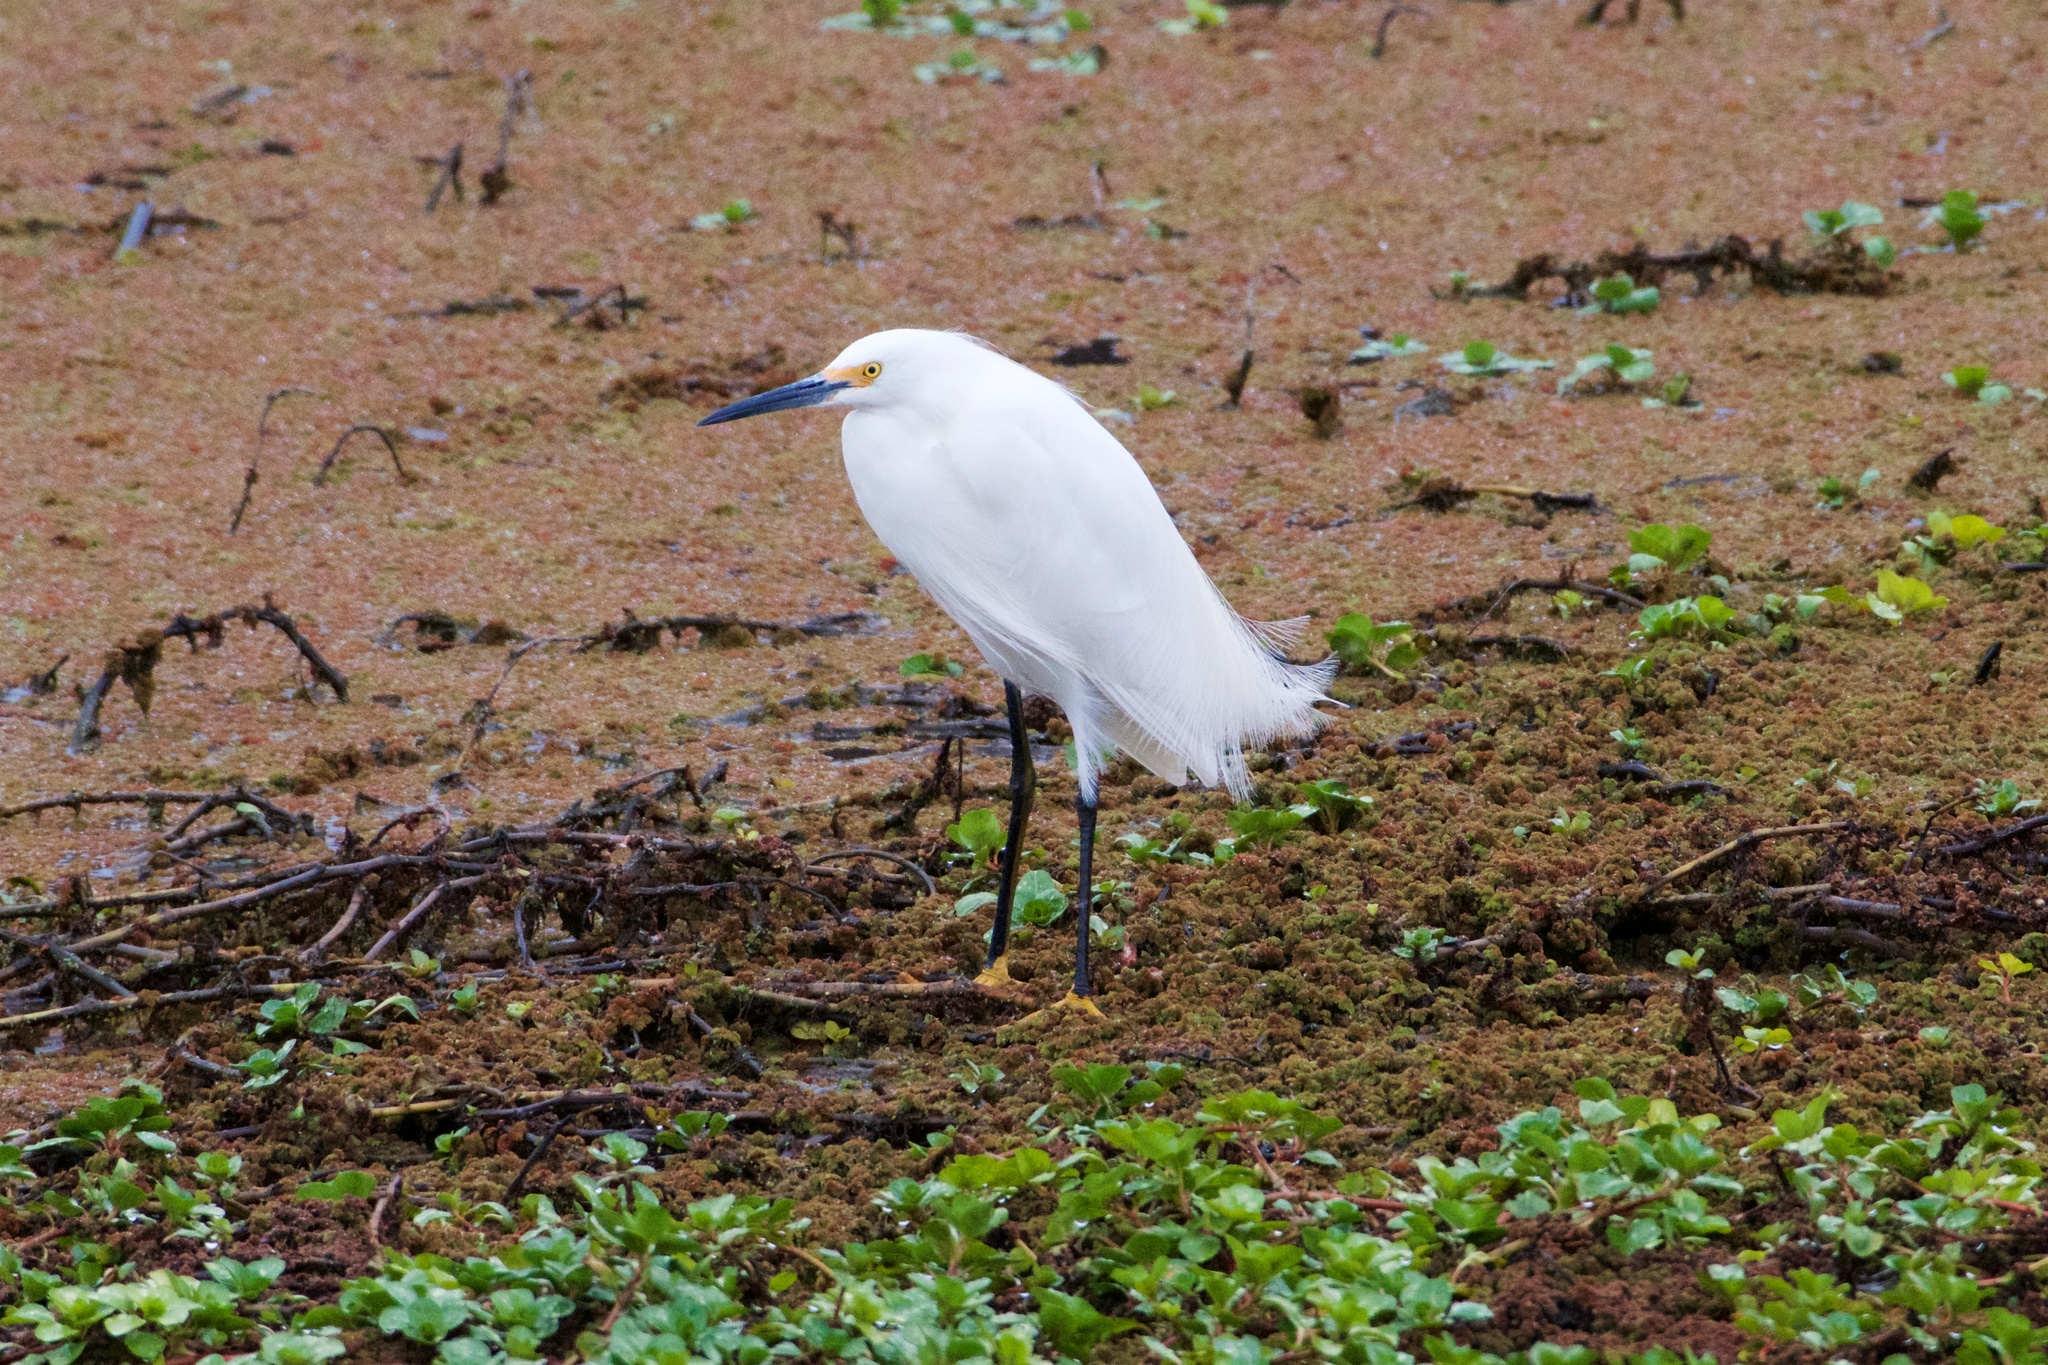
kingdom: Animalia
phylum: Chordata
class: Aves
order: Pelecaniformes
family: Ardeidae
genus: Egretta
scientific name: Egretta thula
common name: Snowy egret
